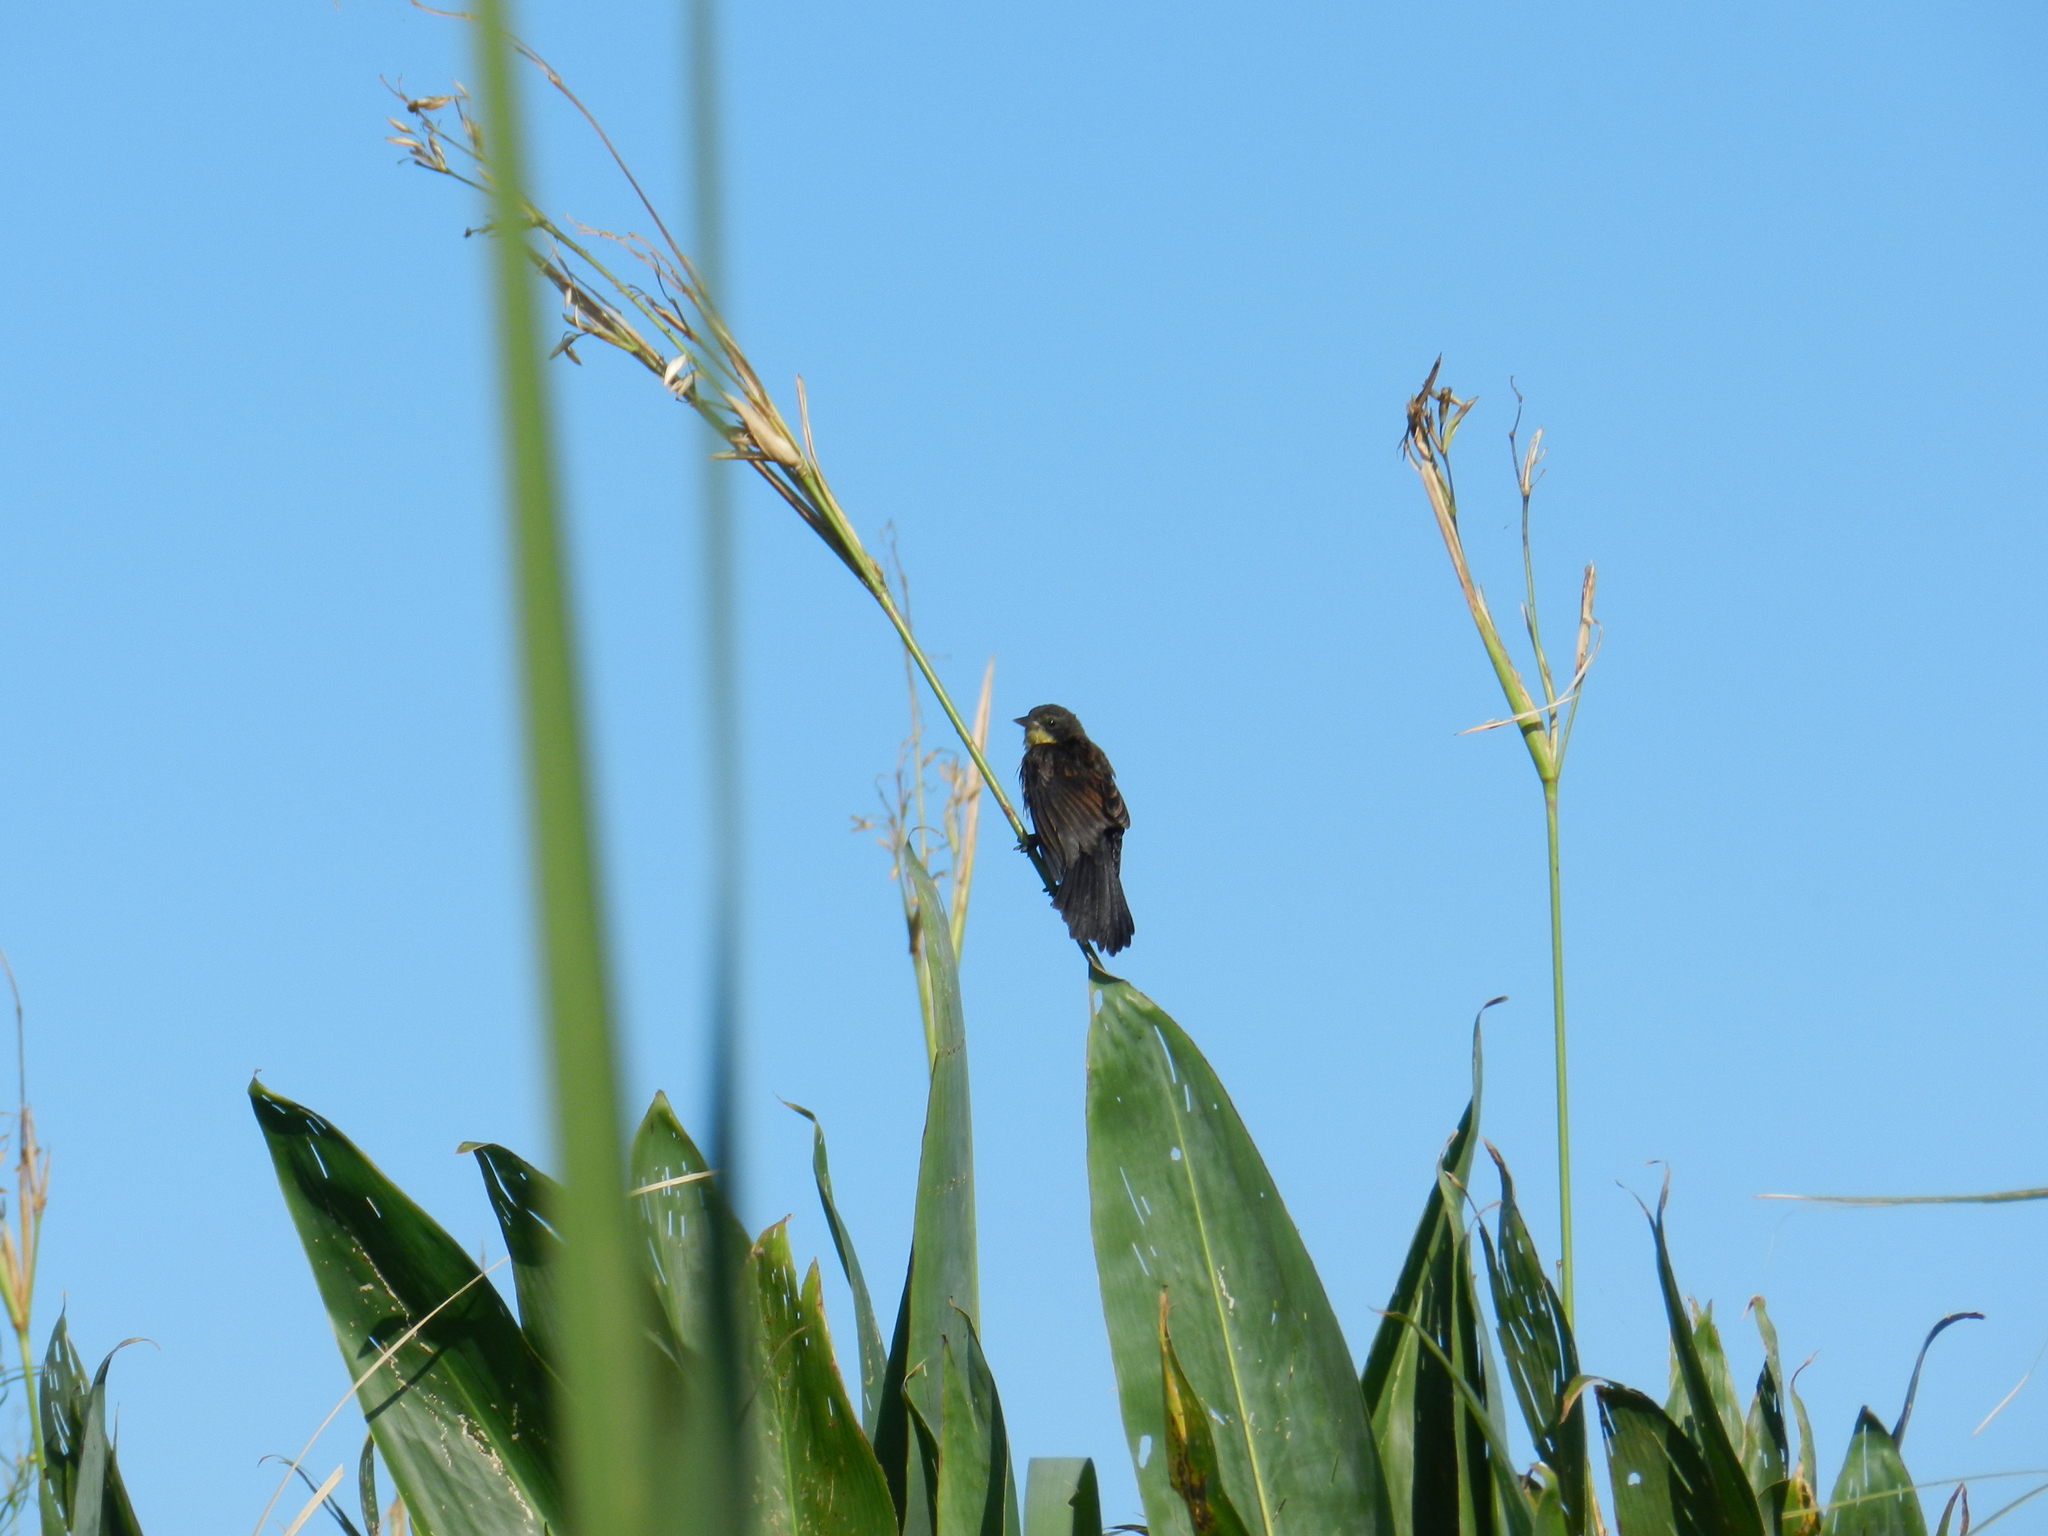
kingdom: Animalia
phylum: Chordata
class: Aves
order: Passeriformes
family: Icteridae
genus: Agelasticus
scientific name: Agelasticus cyanopus
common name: Unicolored blackbird
